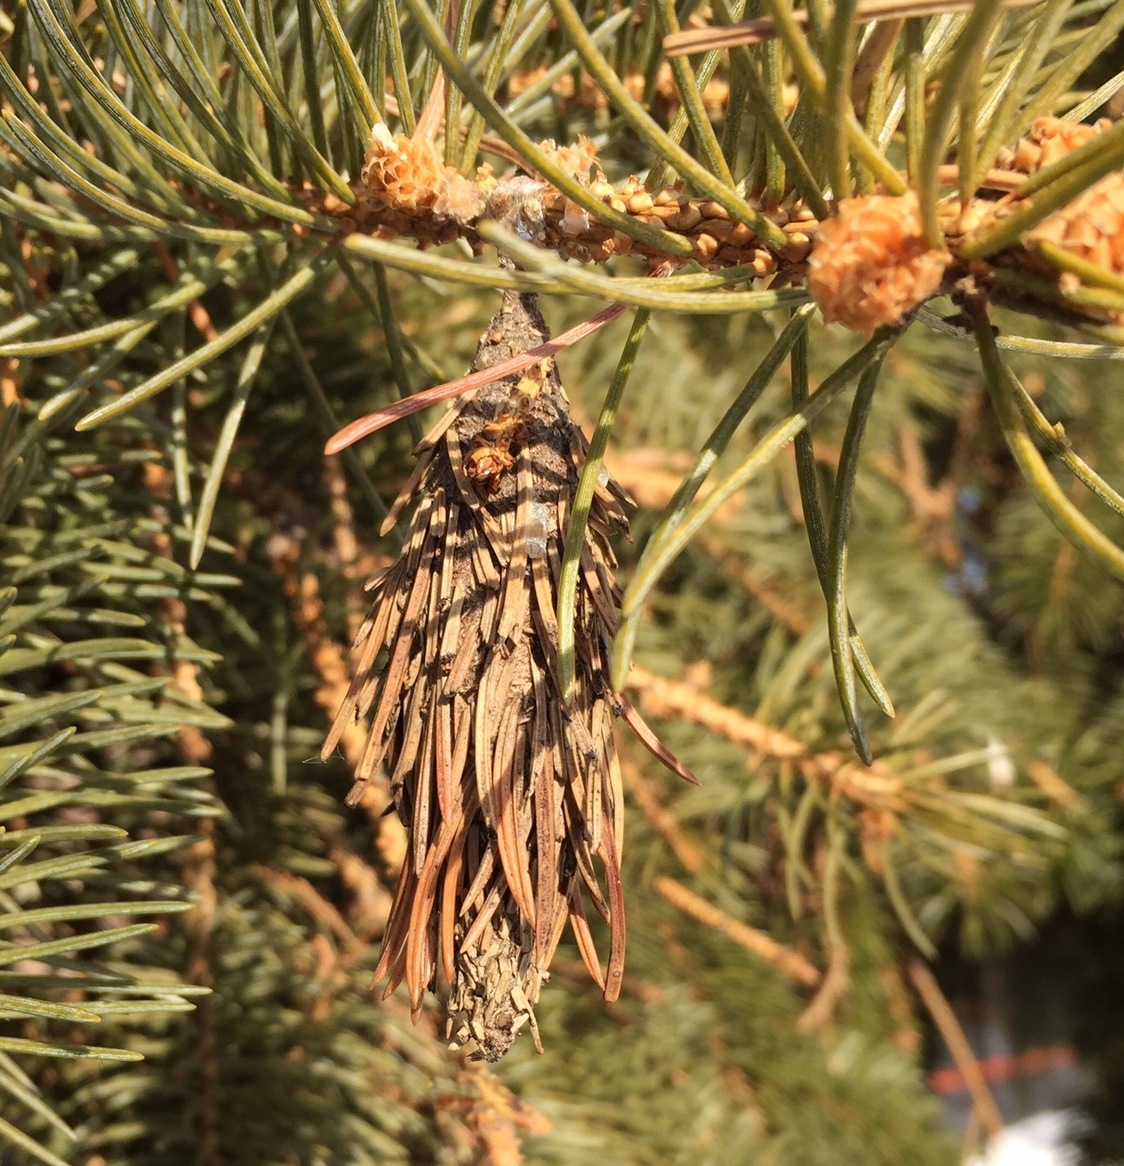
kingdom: Animalia
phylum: Arthropoda
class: Insecta
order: Lepidoptera
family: Psychidae
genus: Thyridopteryx
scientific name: Thyridopteryx ephemeraeformis
